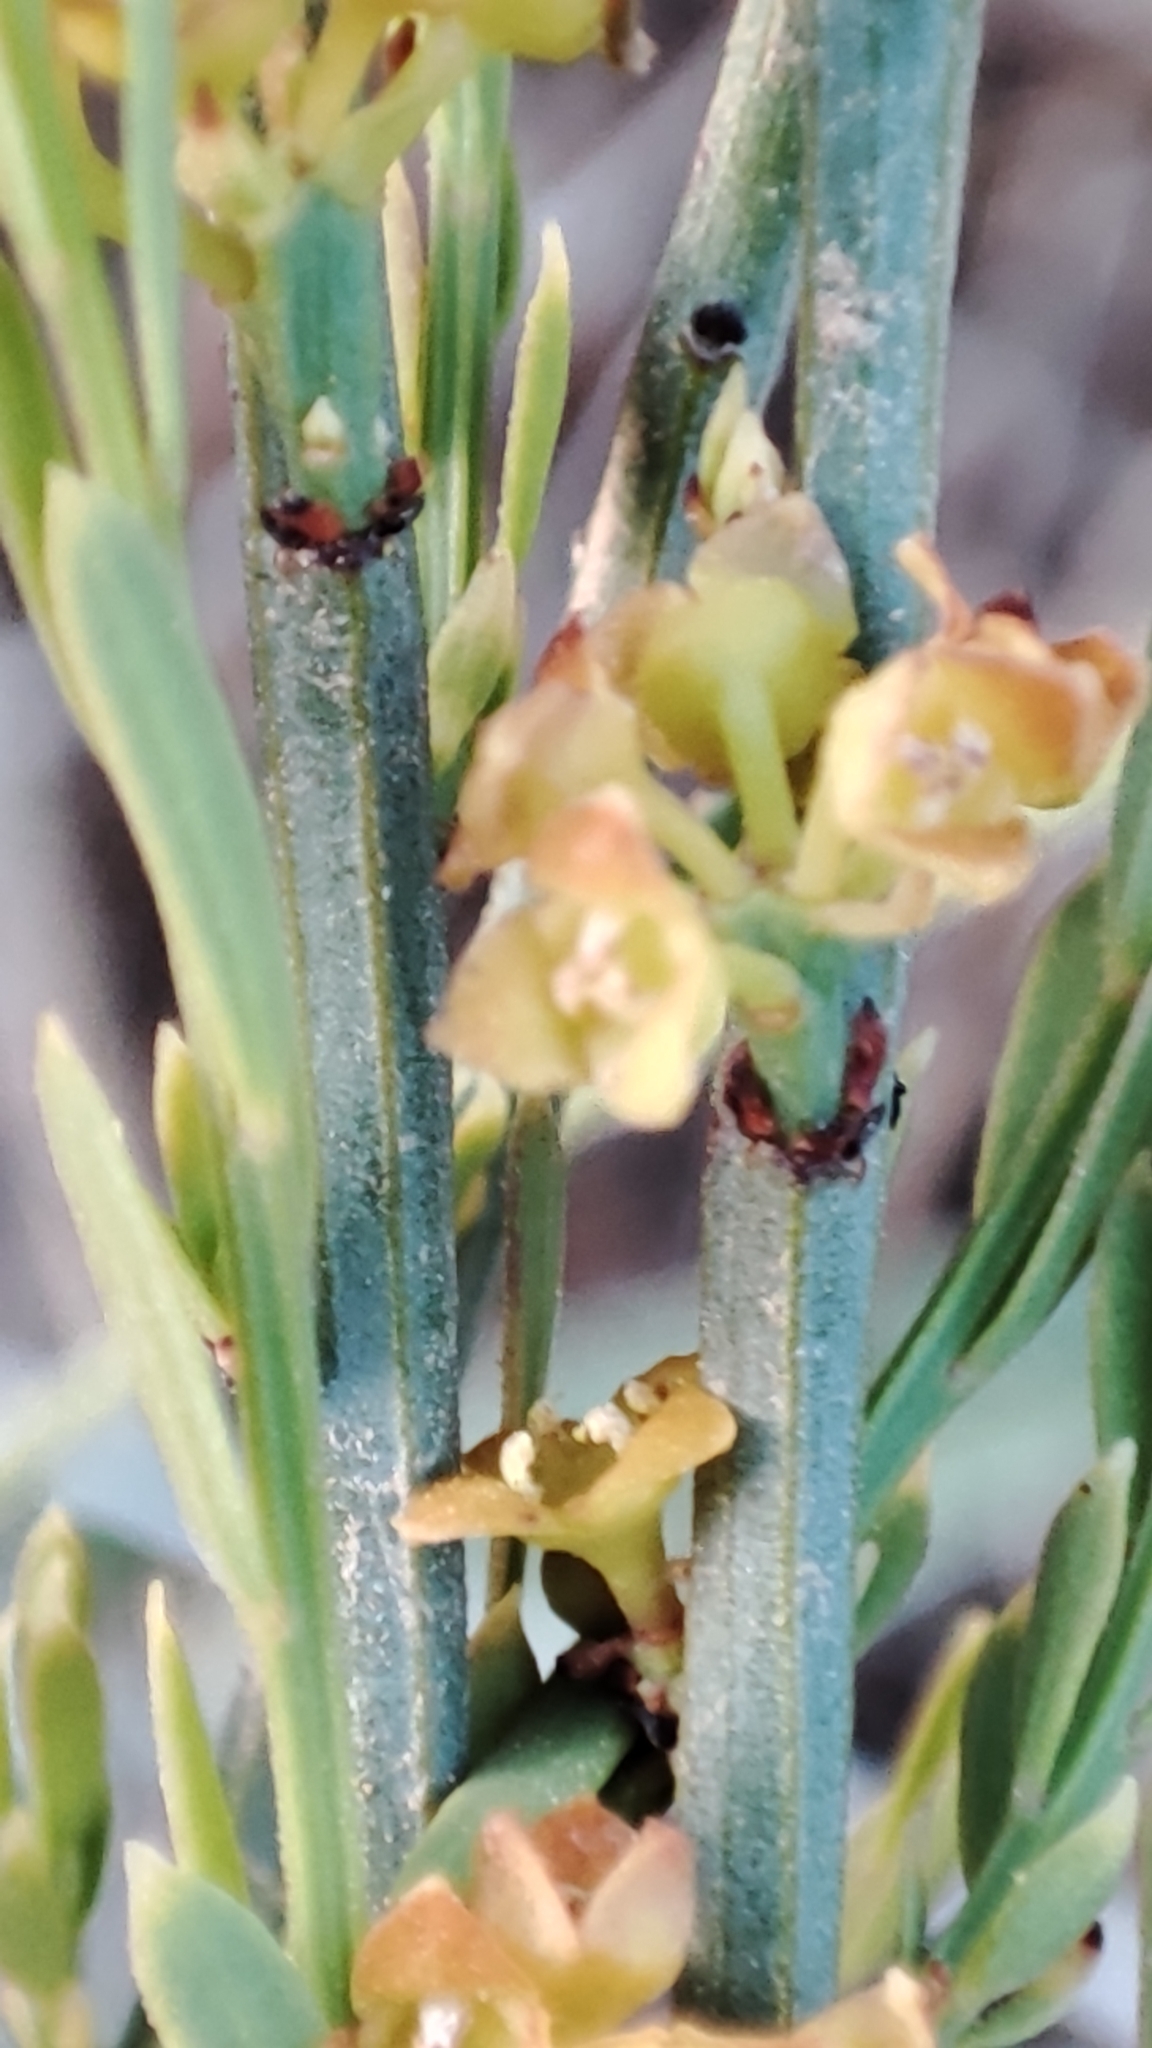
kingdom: Plantae
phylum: Tracheophyta
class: Magnoliopsida
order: Santalales
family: Santalaceae
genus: Osyris
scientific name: Osyris alba
